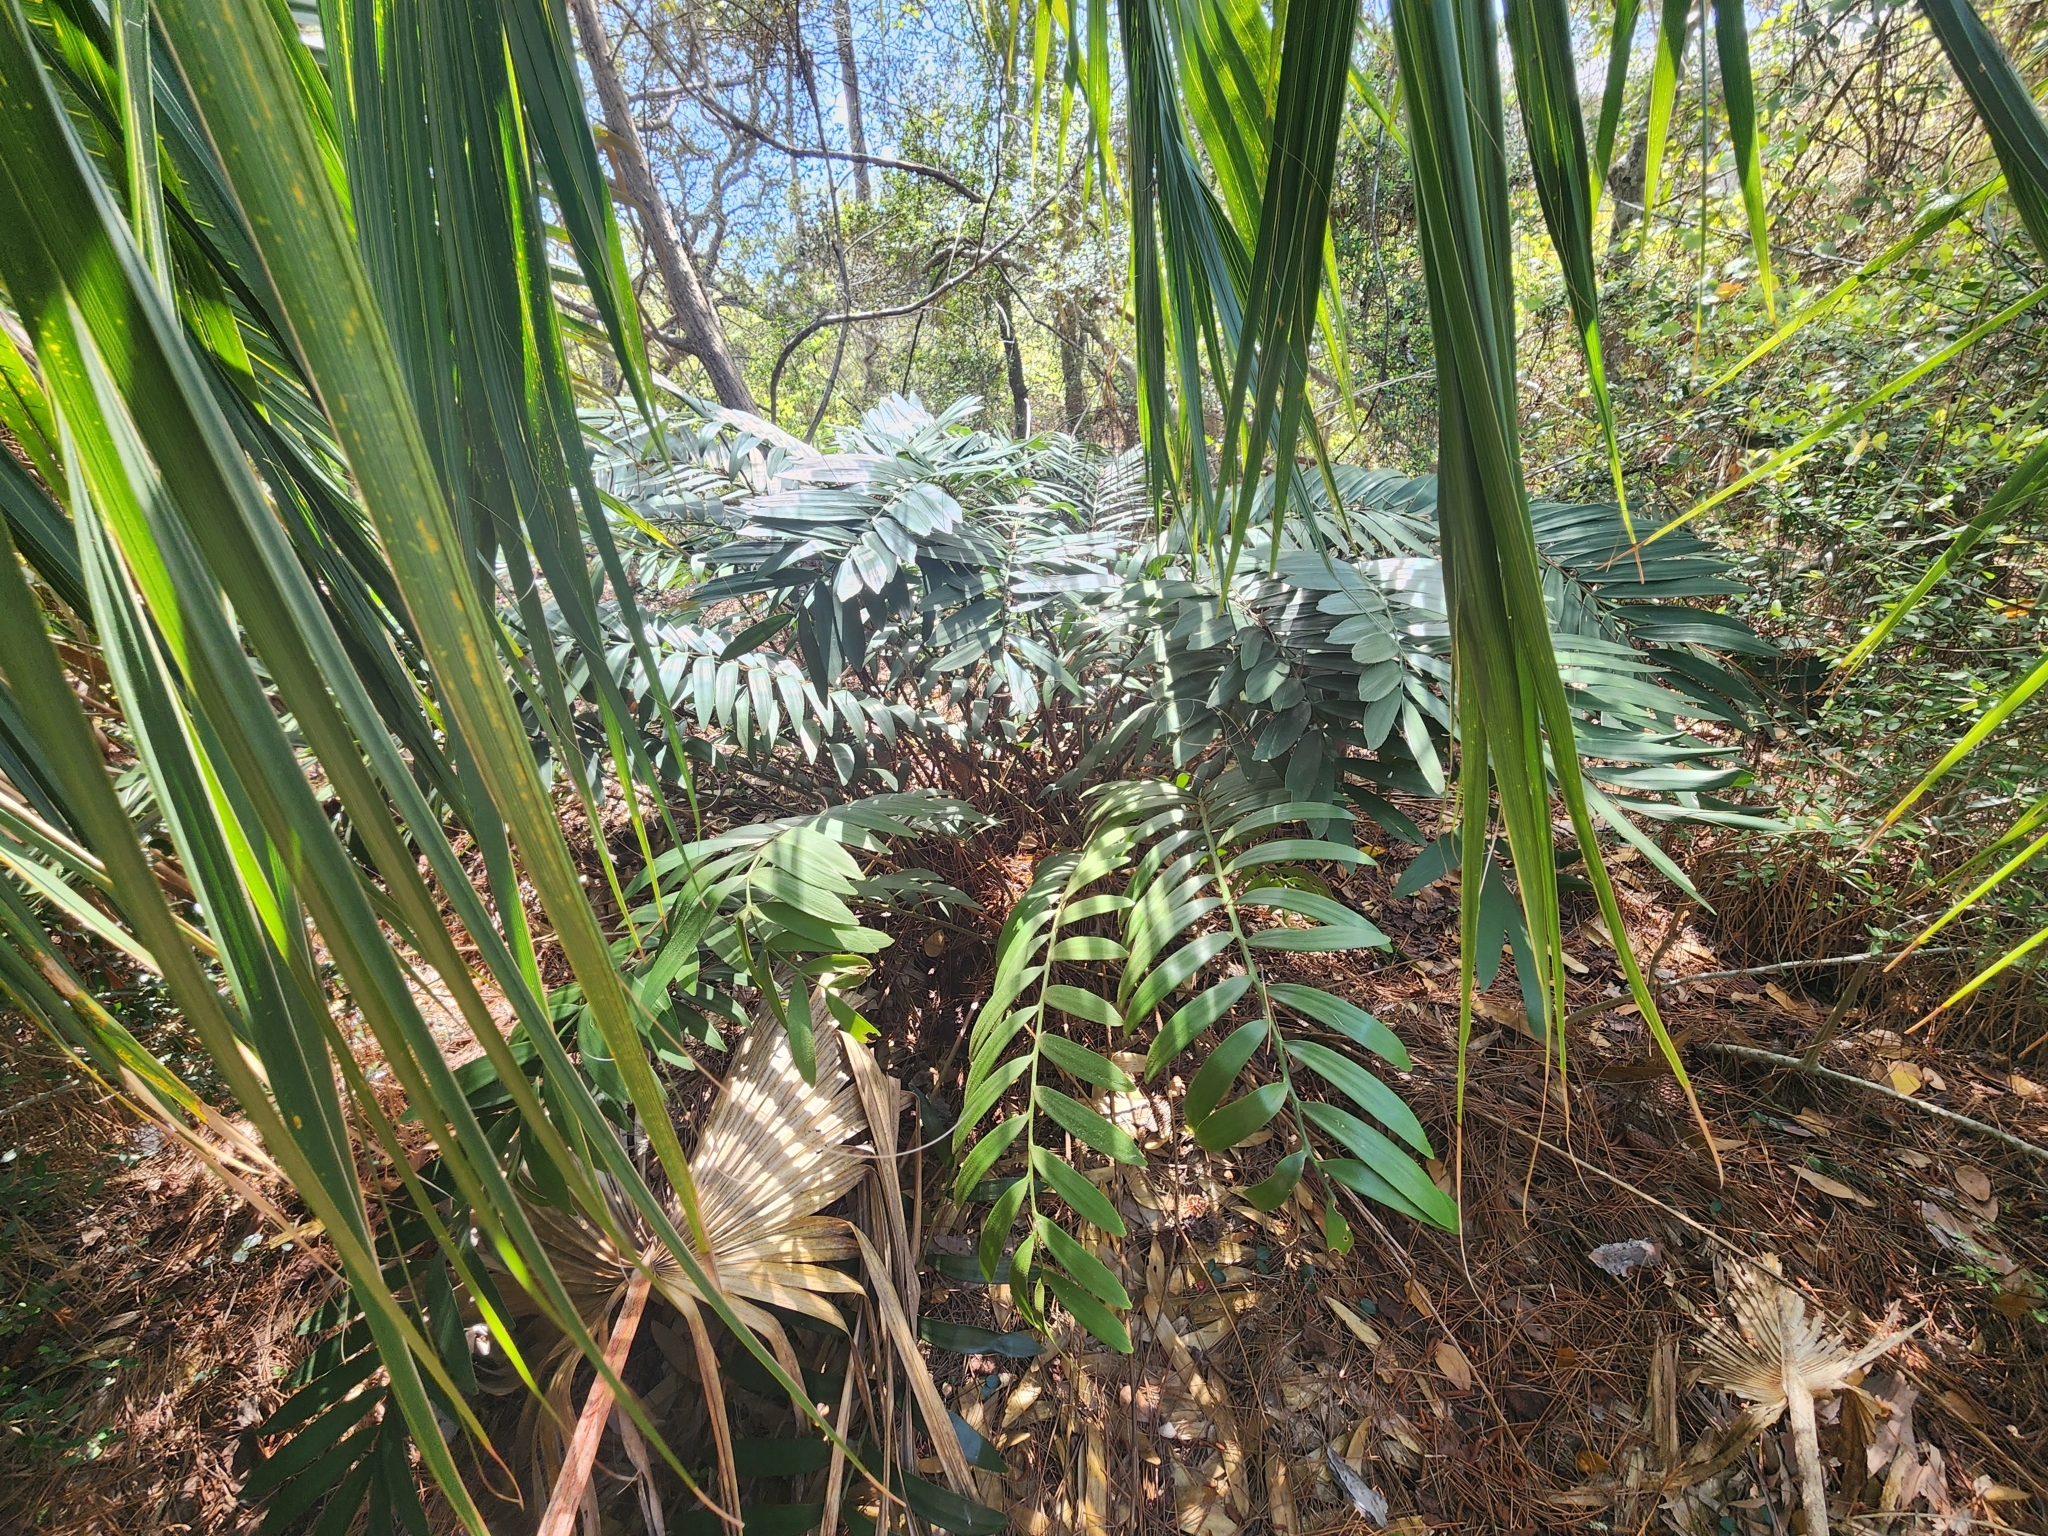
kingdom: Plantae
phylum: Tracheophyta
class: Cycadopsida
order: Cycadales
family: Zamiaceae
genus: Zamia
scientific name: Zamia furfuracea
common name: Cardboard palm
